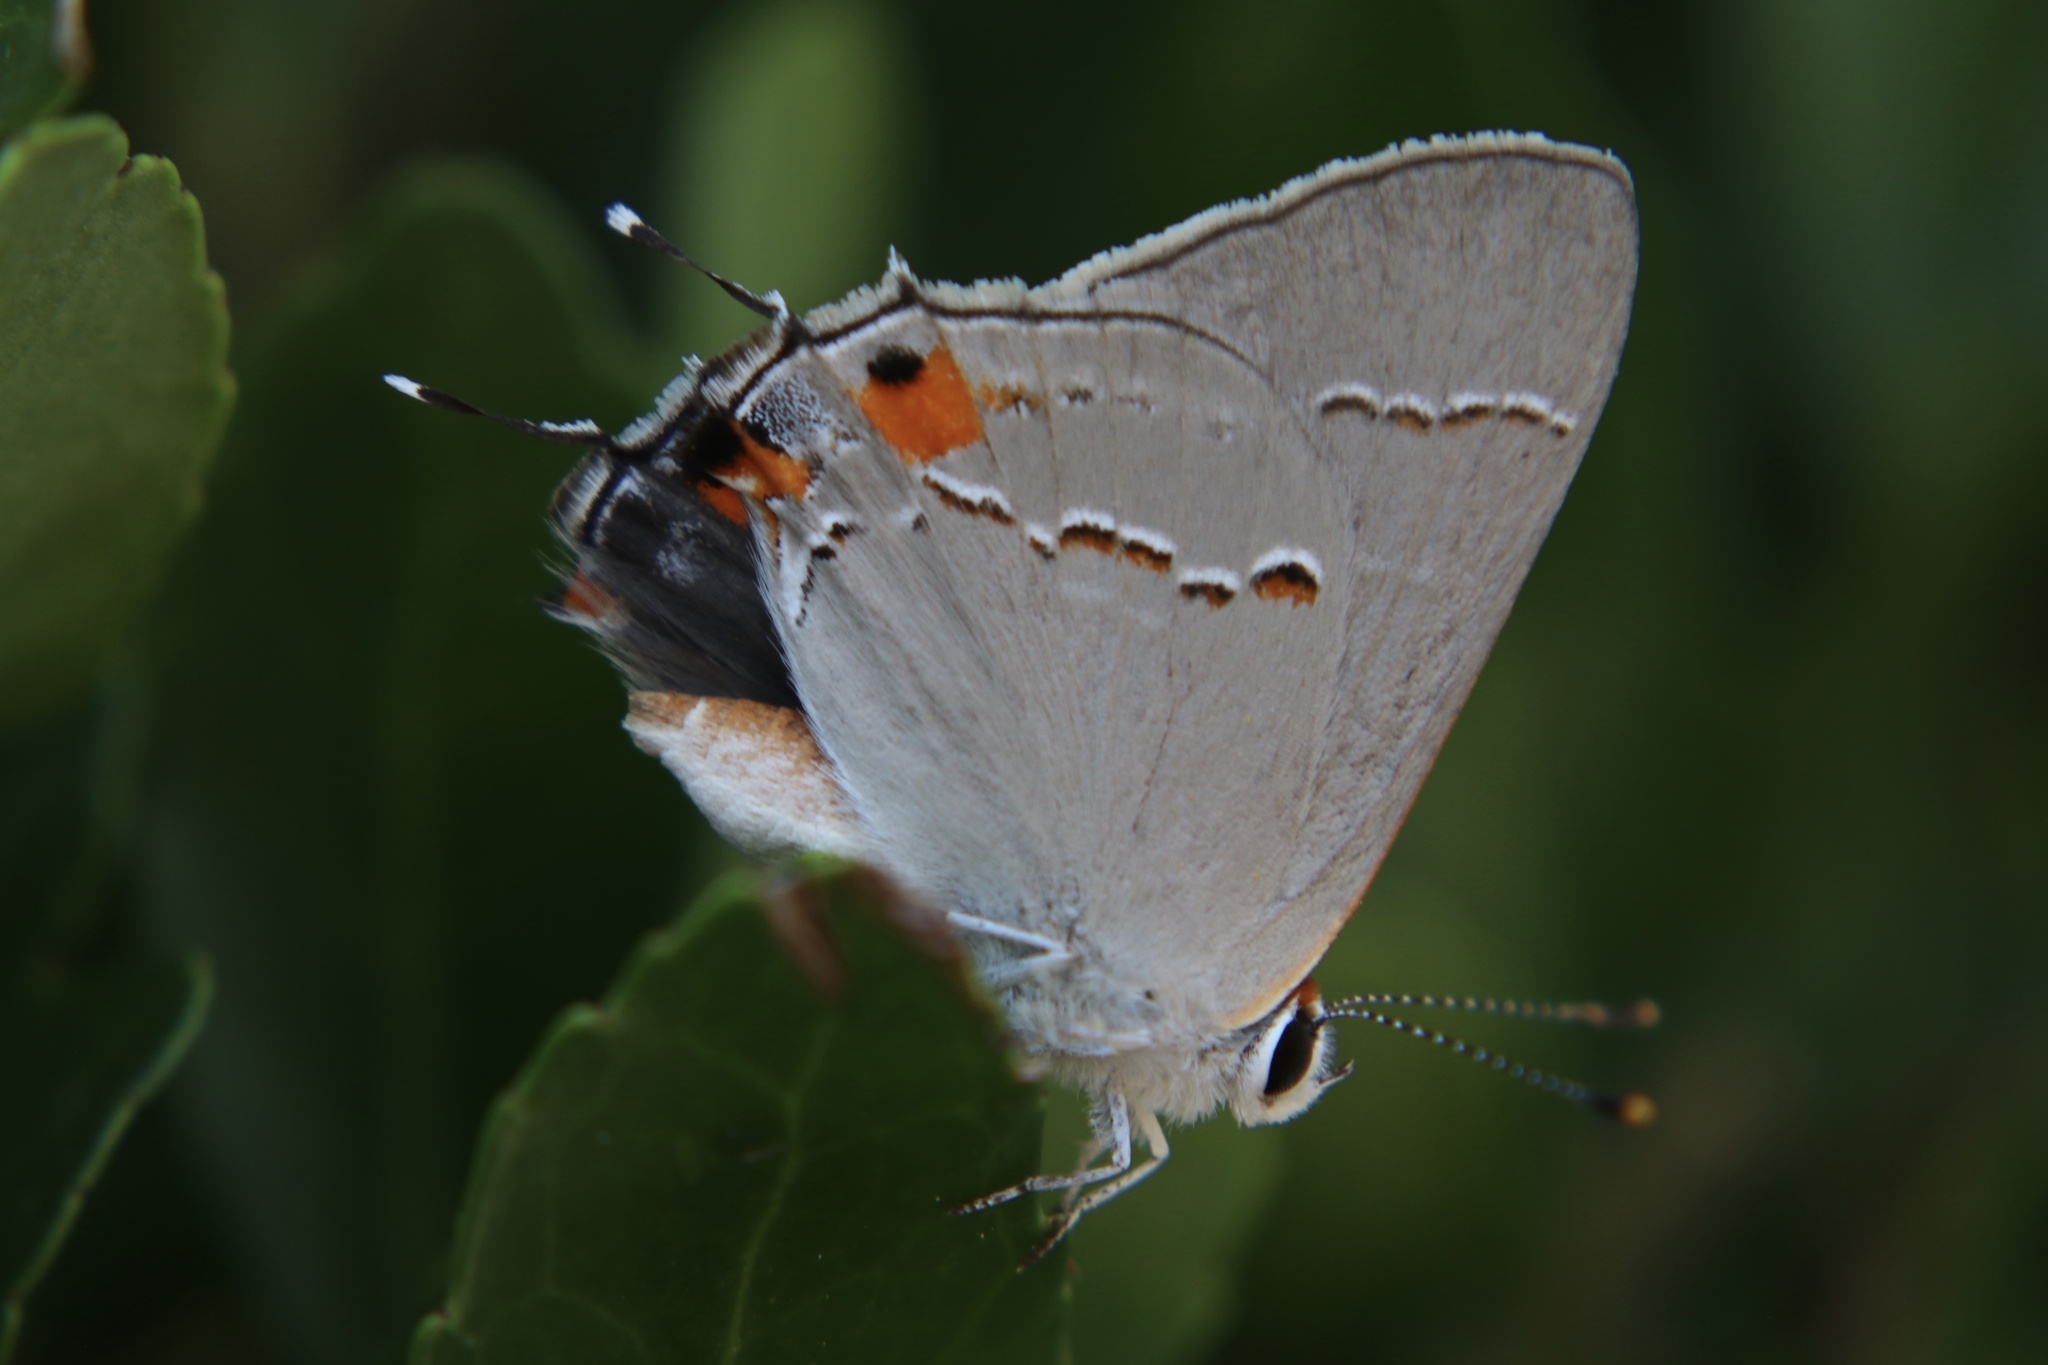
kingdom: Animalia
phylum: Arthropoda
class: Insecta
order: Lepidoptera
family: Lycaenidae
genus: Strymon
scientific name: Strymon melinus
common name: Gray hairstreak
